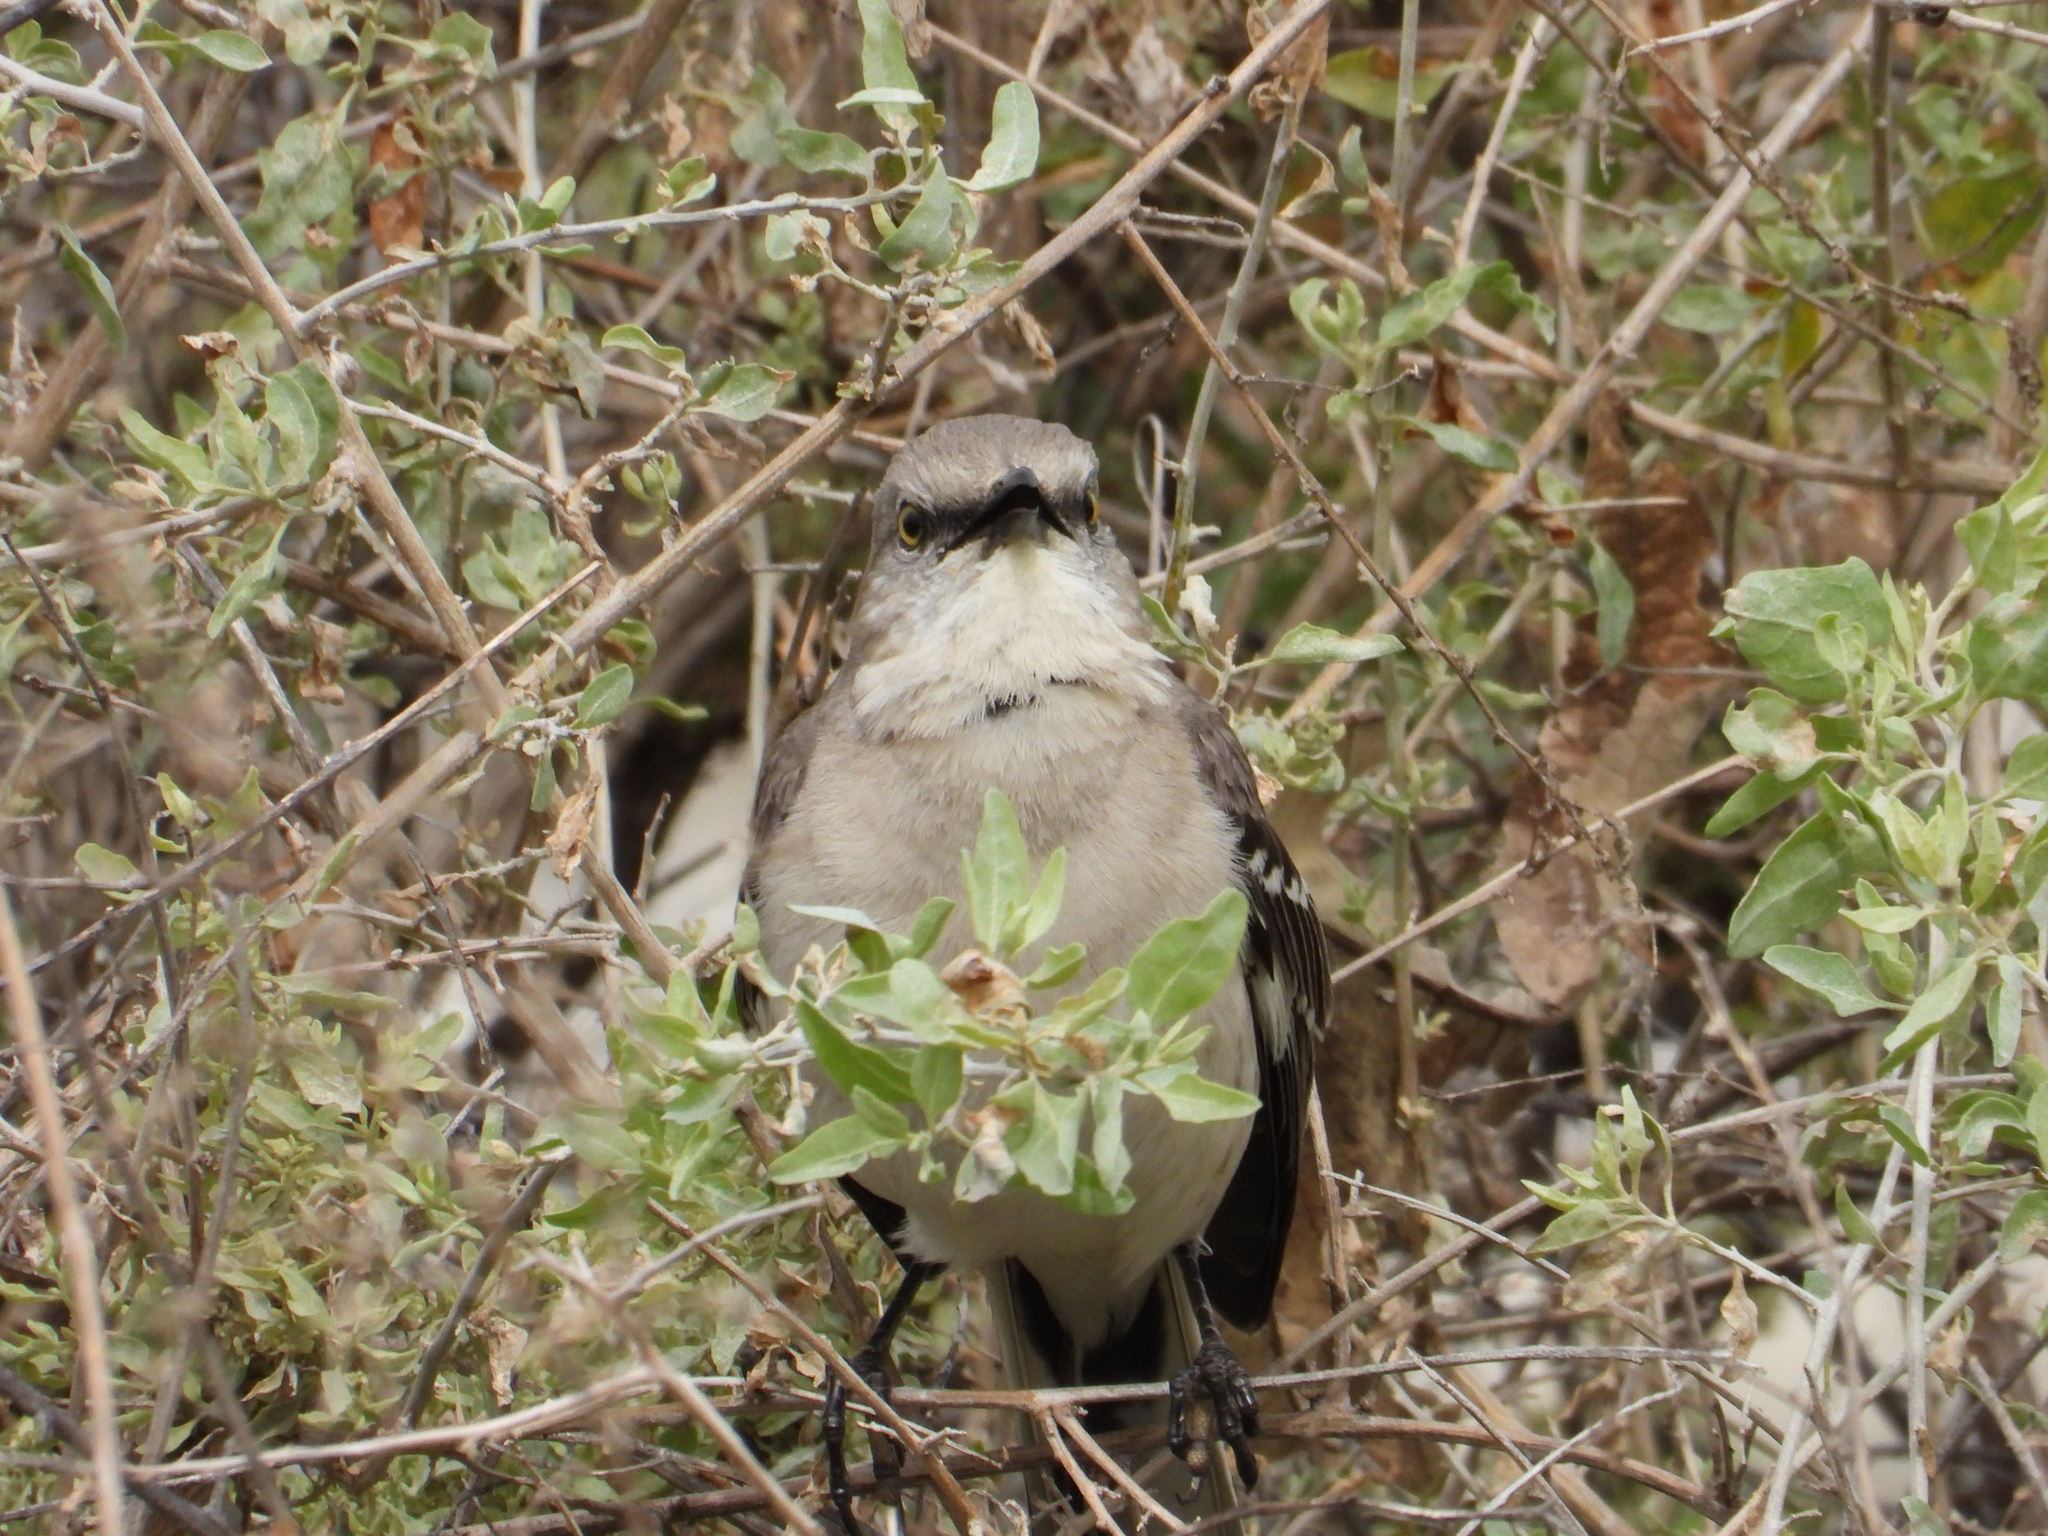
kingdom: Animalia
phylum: Chordata
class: Aves
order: Passeriformes
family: Mimidae
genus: Mimus
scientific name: Mimus polyglottos
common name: Northern mockingbird
